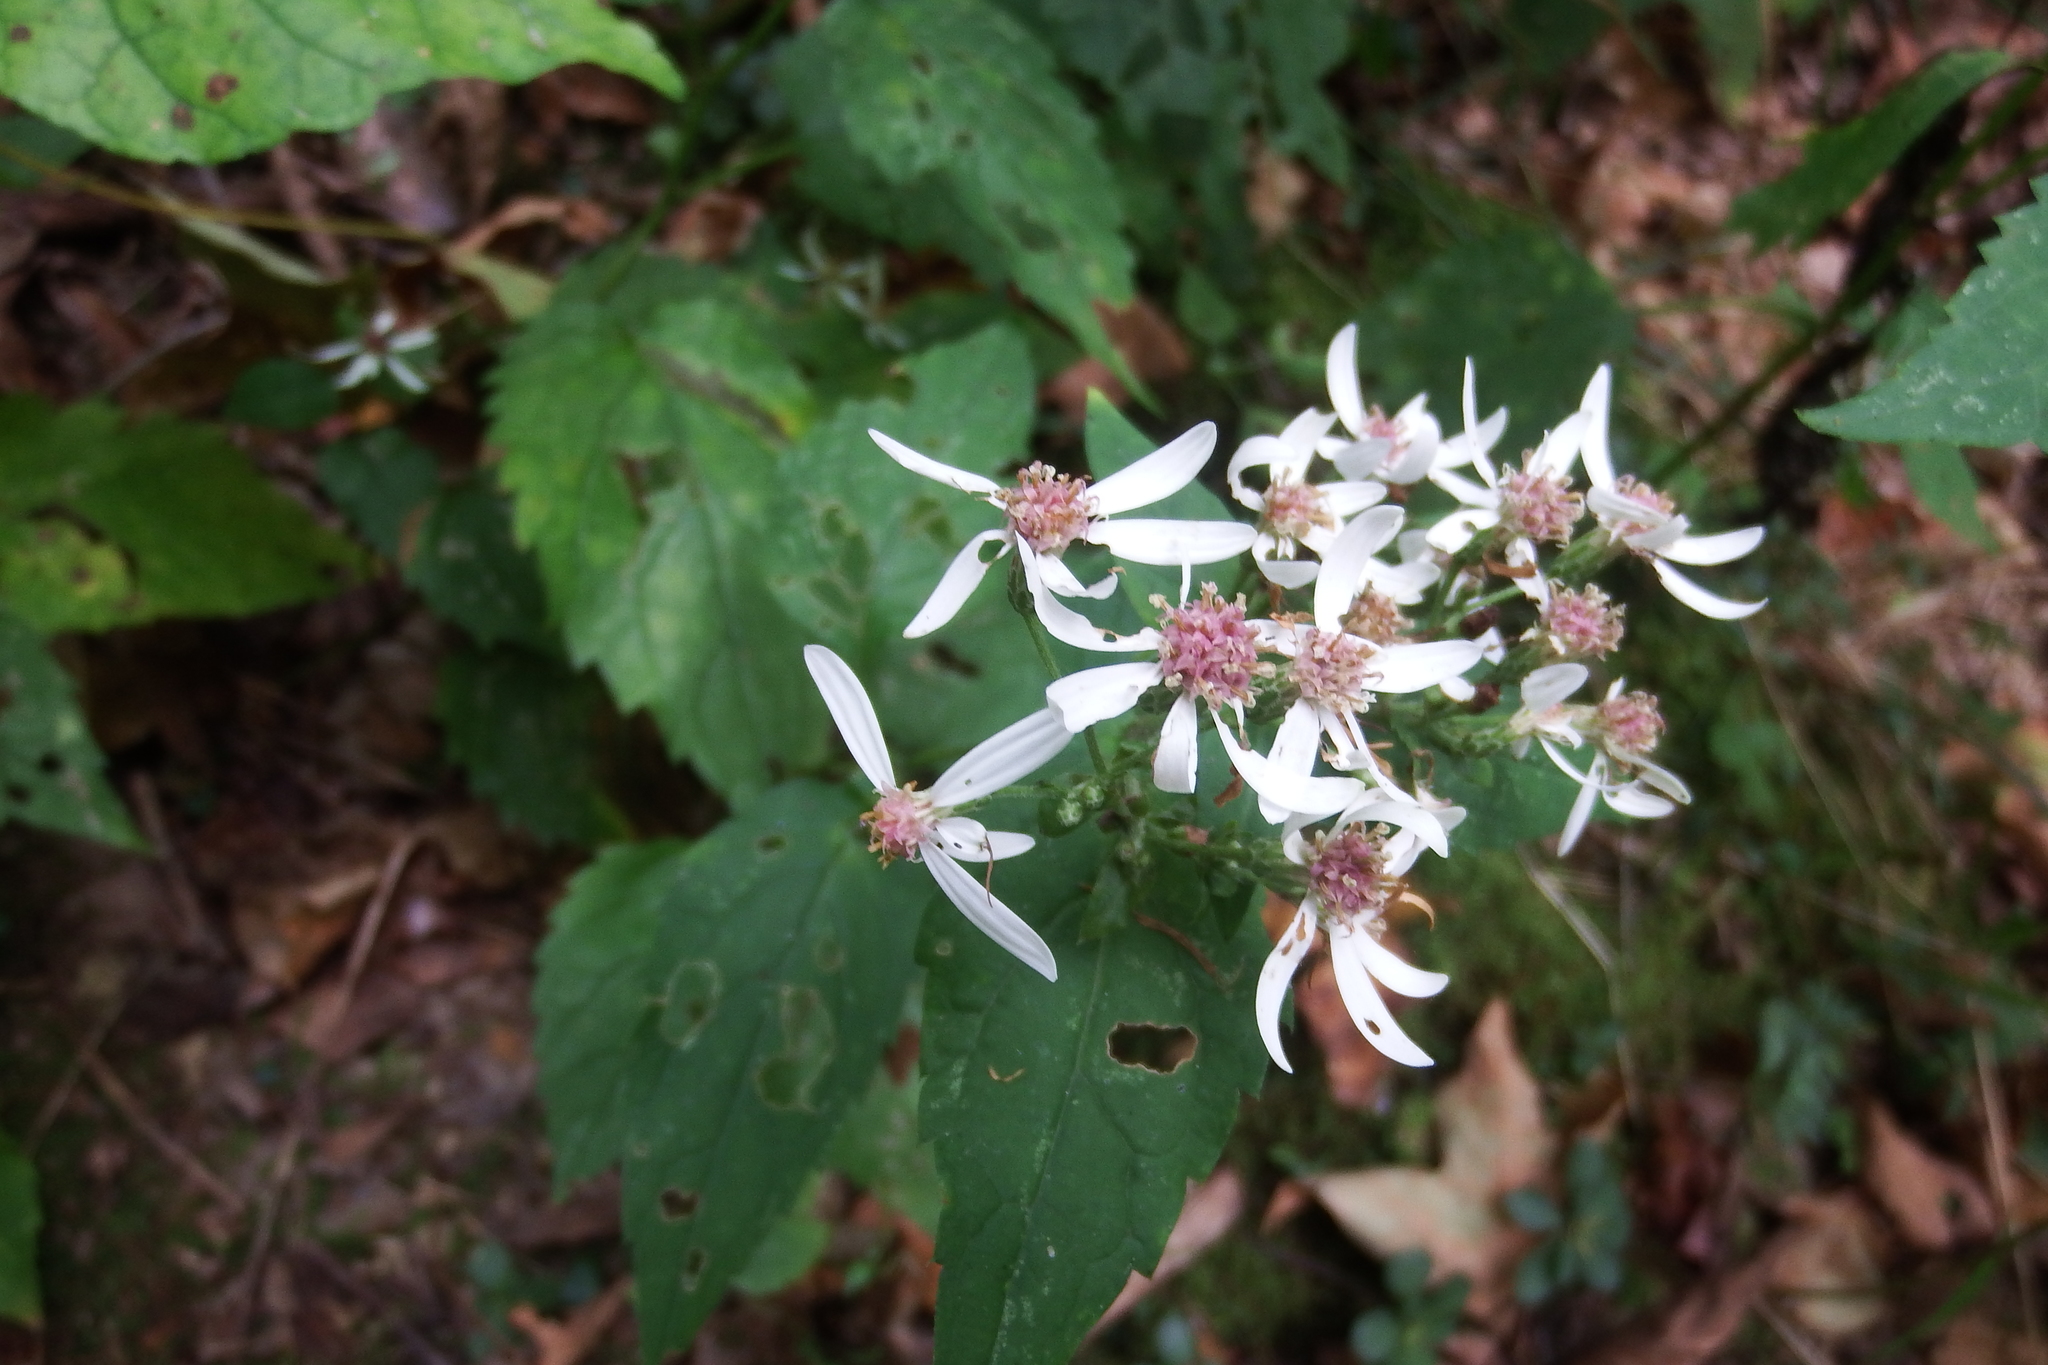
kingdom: Plantae
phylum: Tracheophyta
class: Magnoliopsida
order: Asterales
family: Asteraceae
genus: Eurybia
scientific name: Eurybia divaricata
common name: White wood aster
